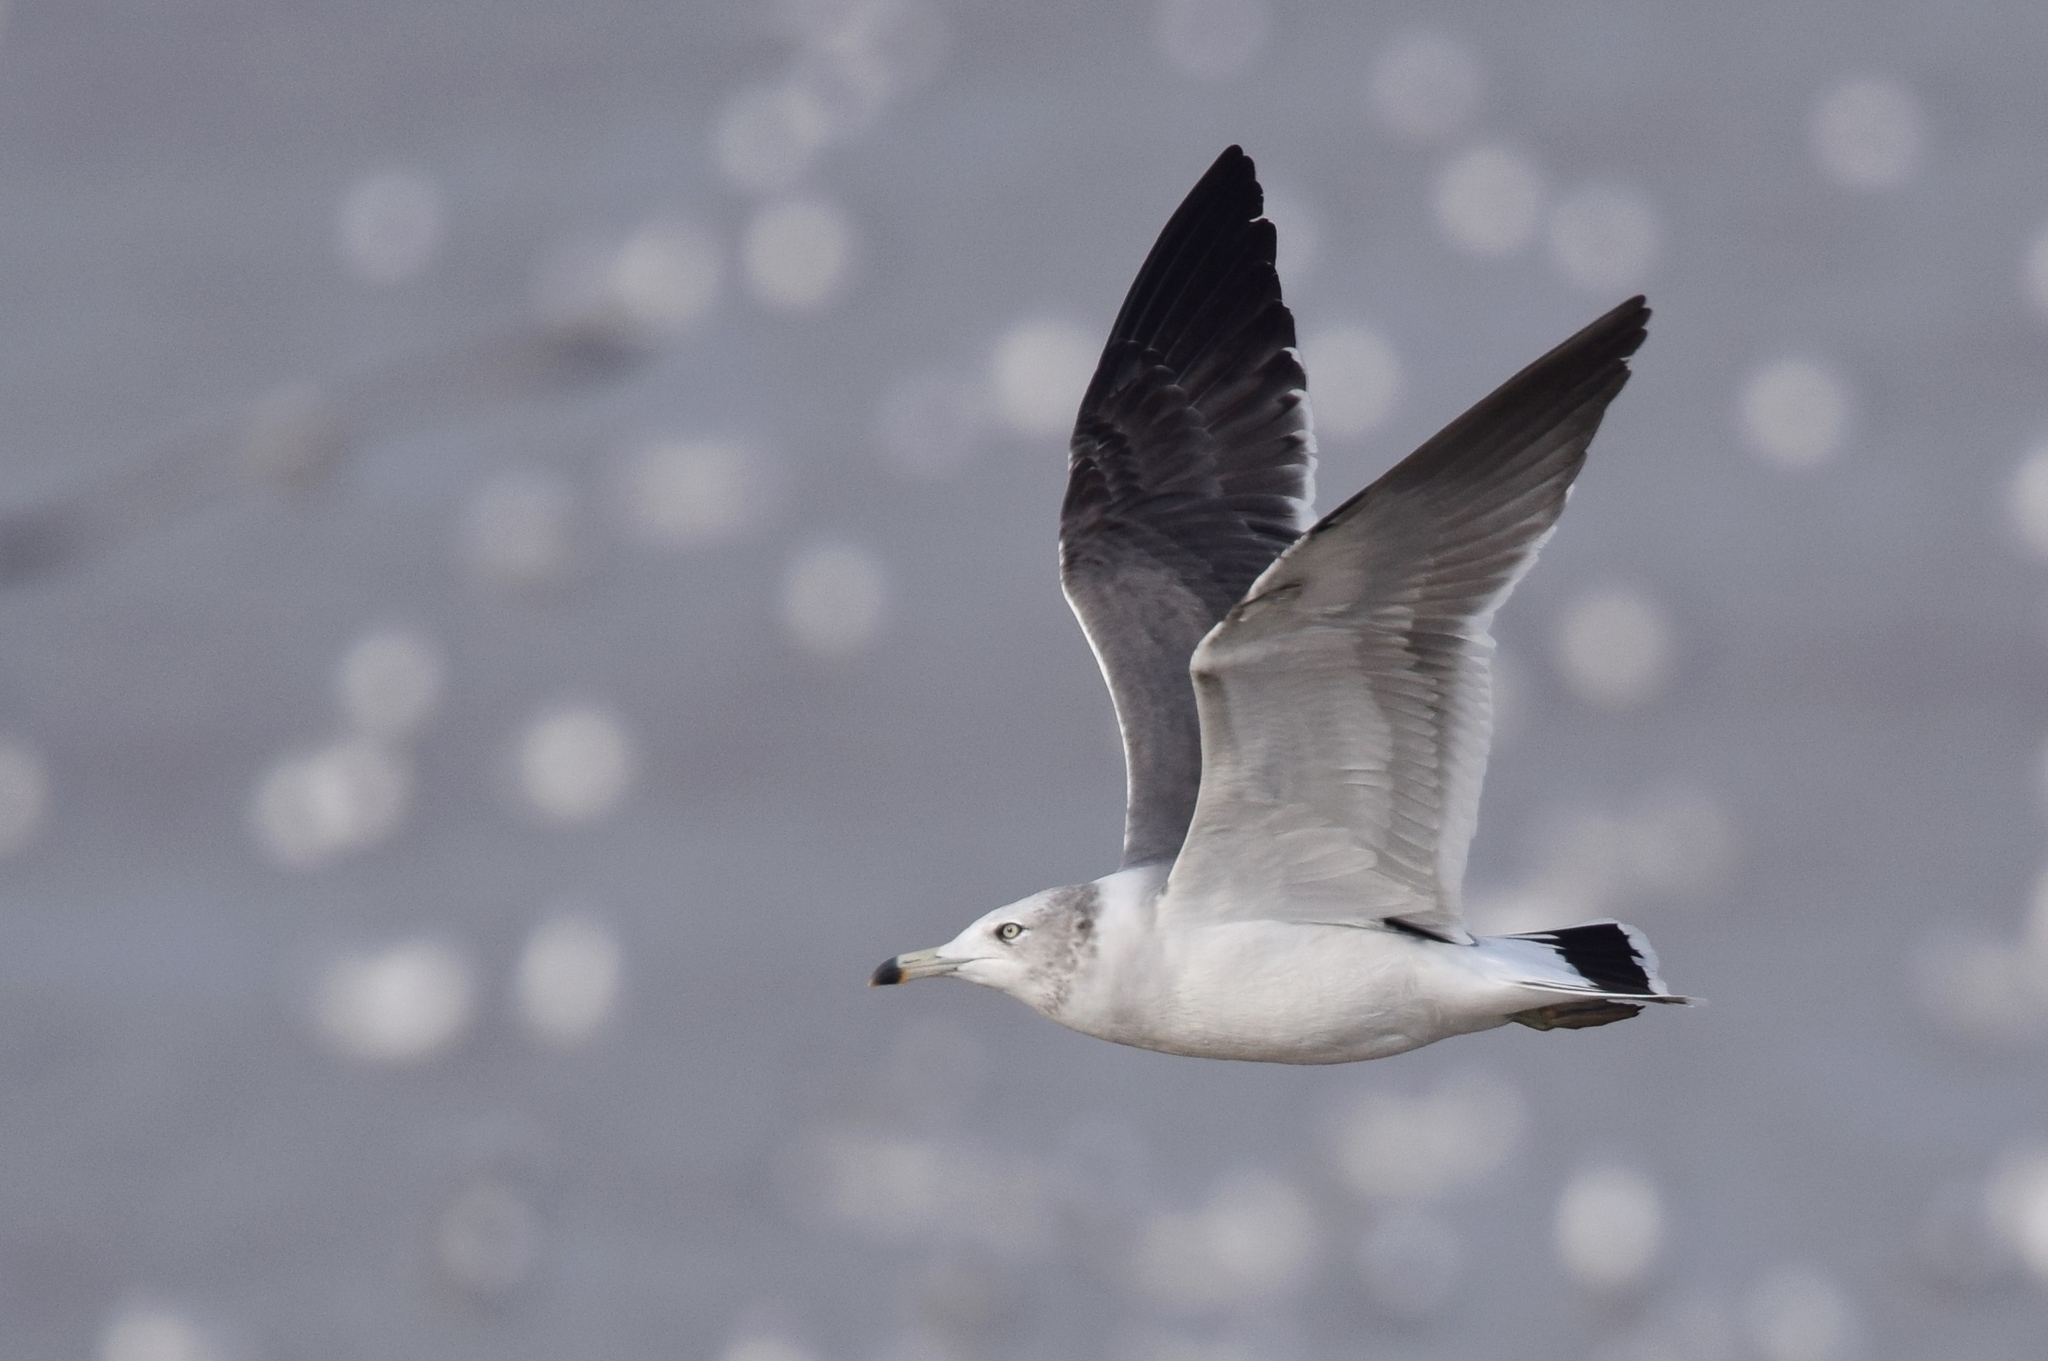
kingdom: Animalia
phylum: Chordata
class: Aves
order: Charadriiformes
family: Laridae
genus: Larus
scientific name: Larus crassirostris
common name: Black-tailed gull
